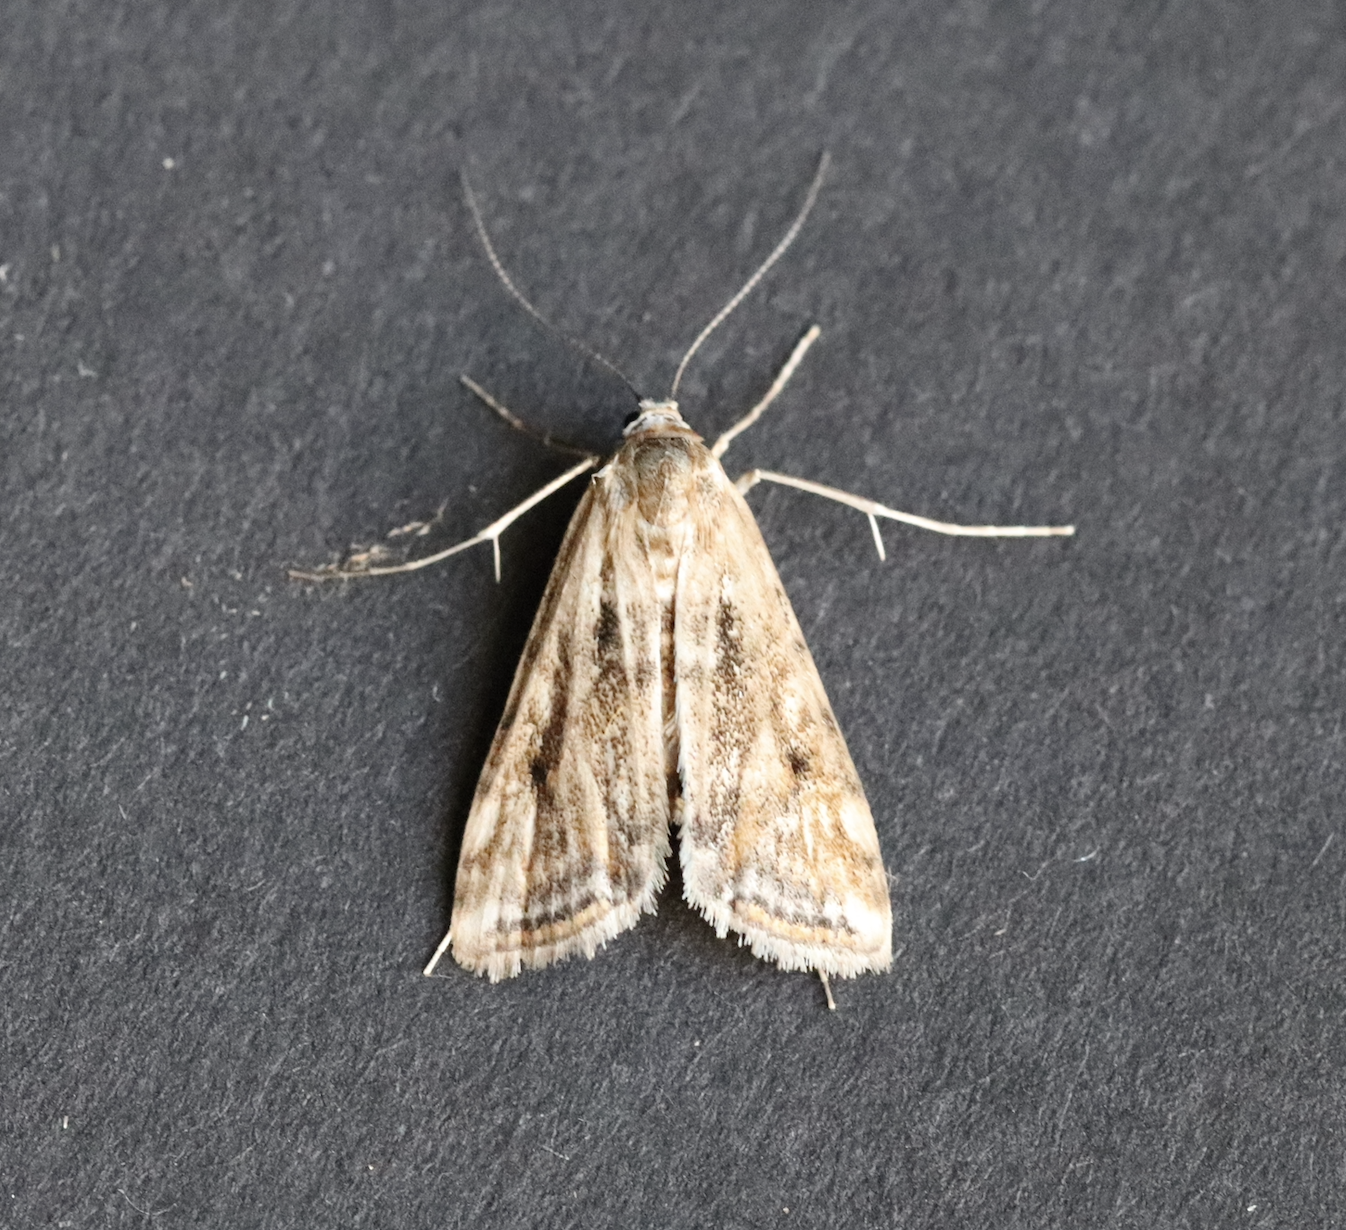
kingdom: Animalia
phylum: Arthropoda
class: Insecta
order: Lepidoptera
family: Crambidae
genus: Cataclysta
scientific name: Cataclysta lemnata
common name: Small china-mark
